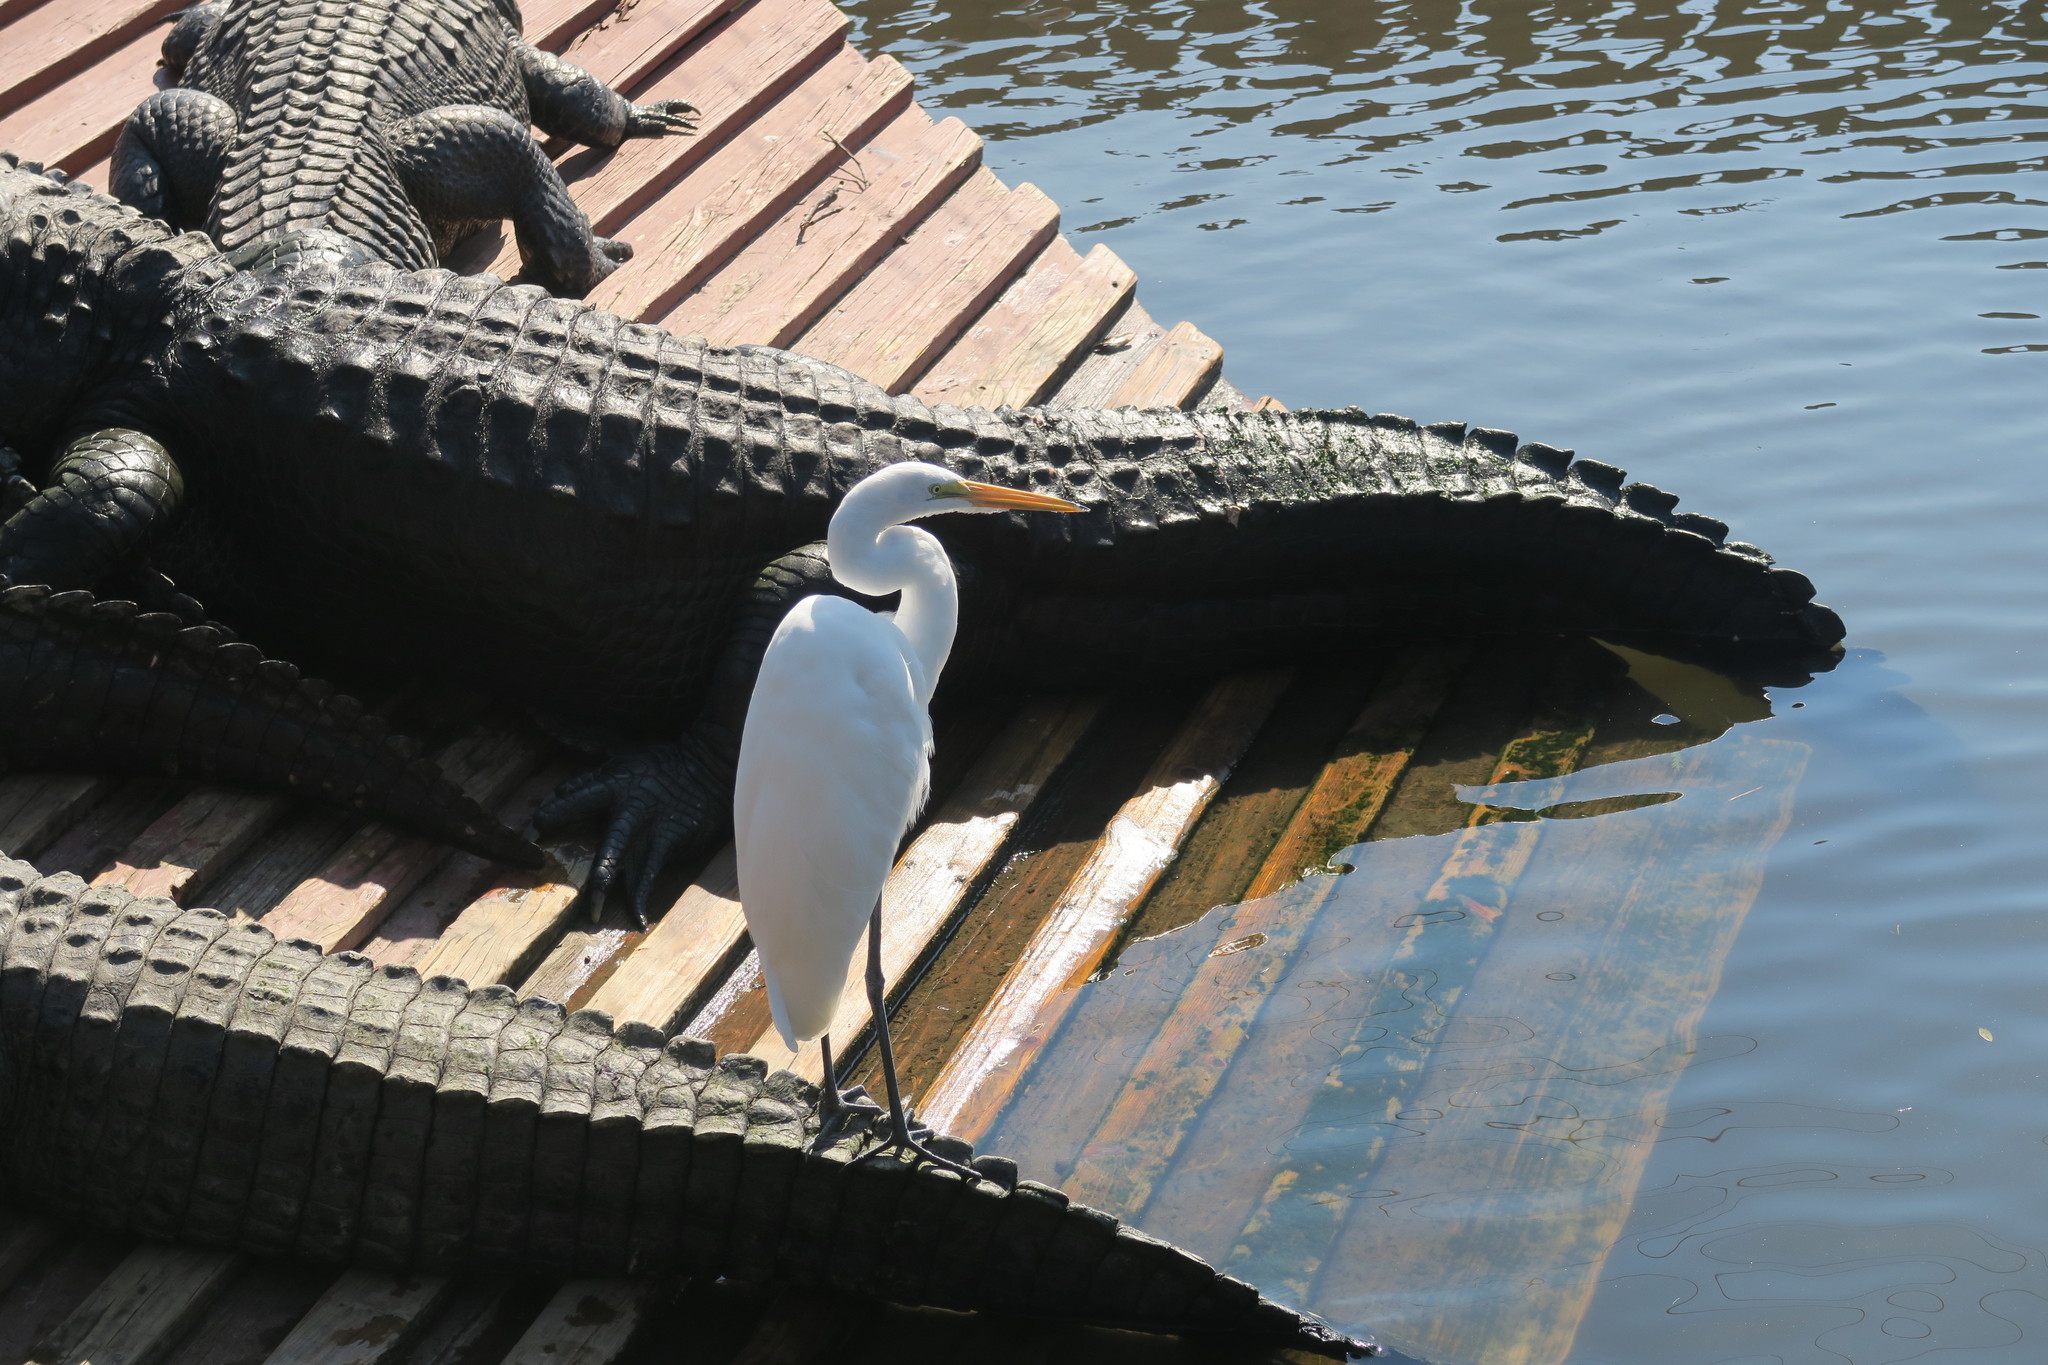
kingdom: Animalia
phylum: Chordata
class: Aves
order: Pelecaniformes
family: Ardeidae
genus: Ardea
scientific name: Ardea alba
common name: Great egret
